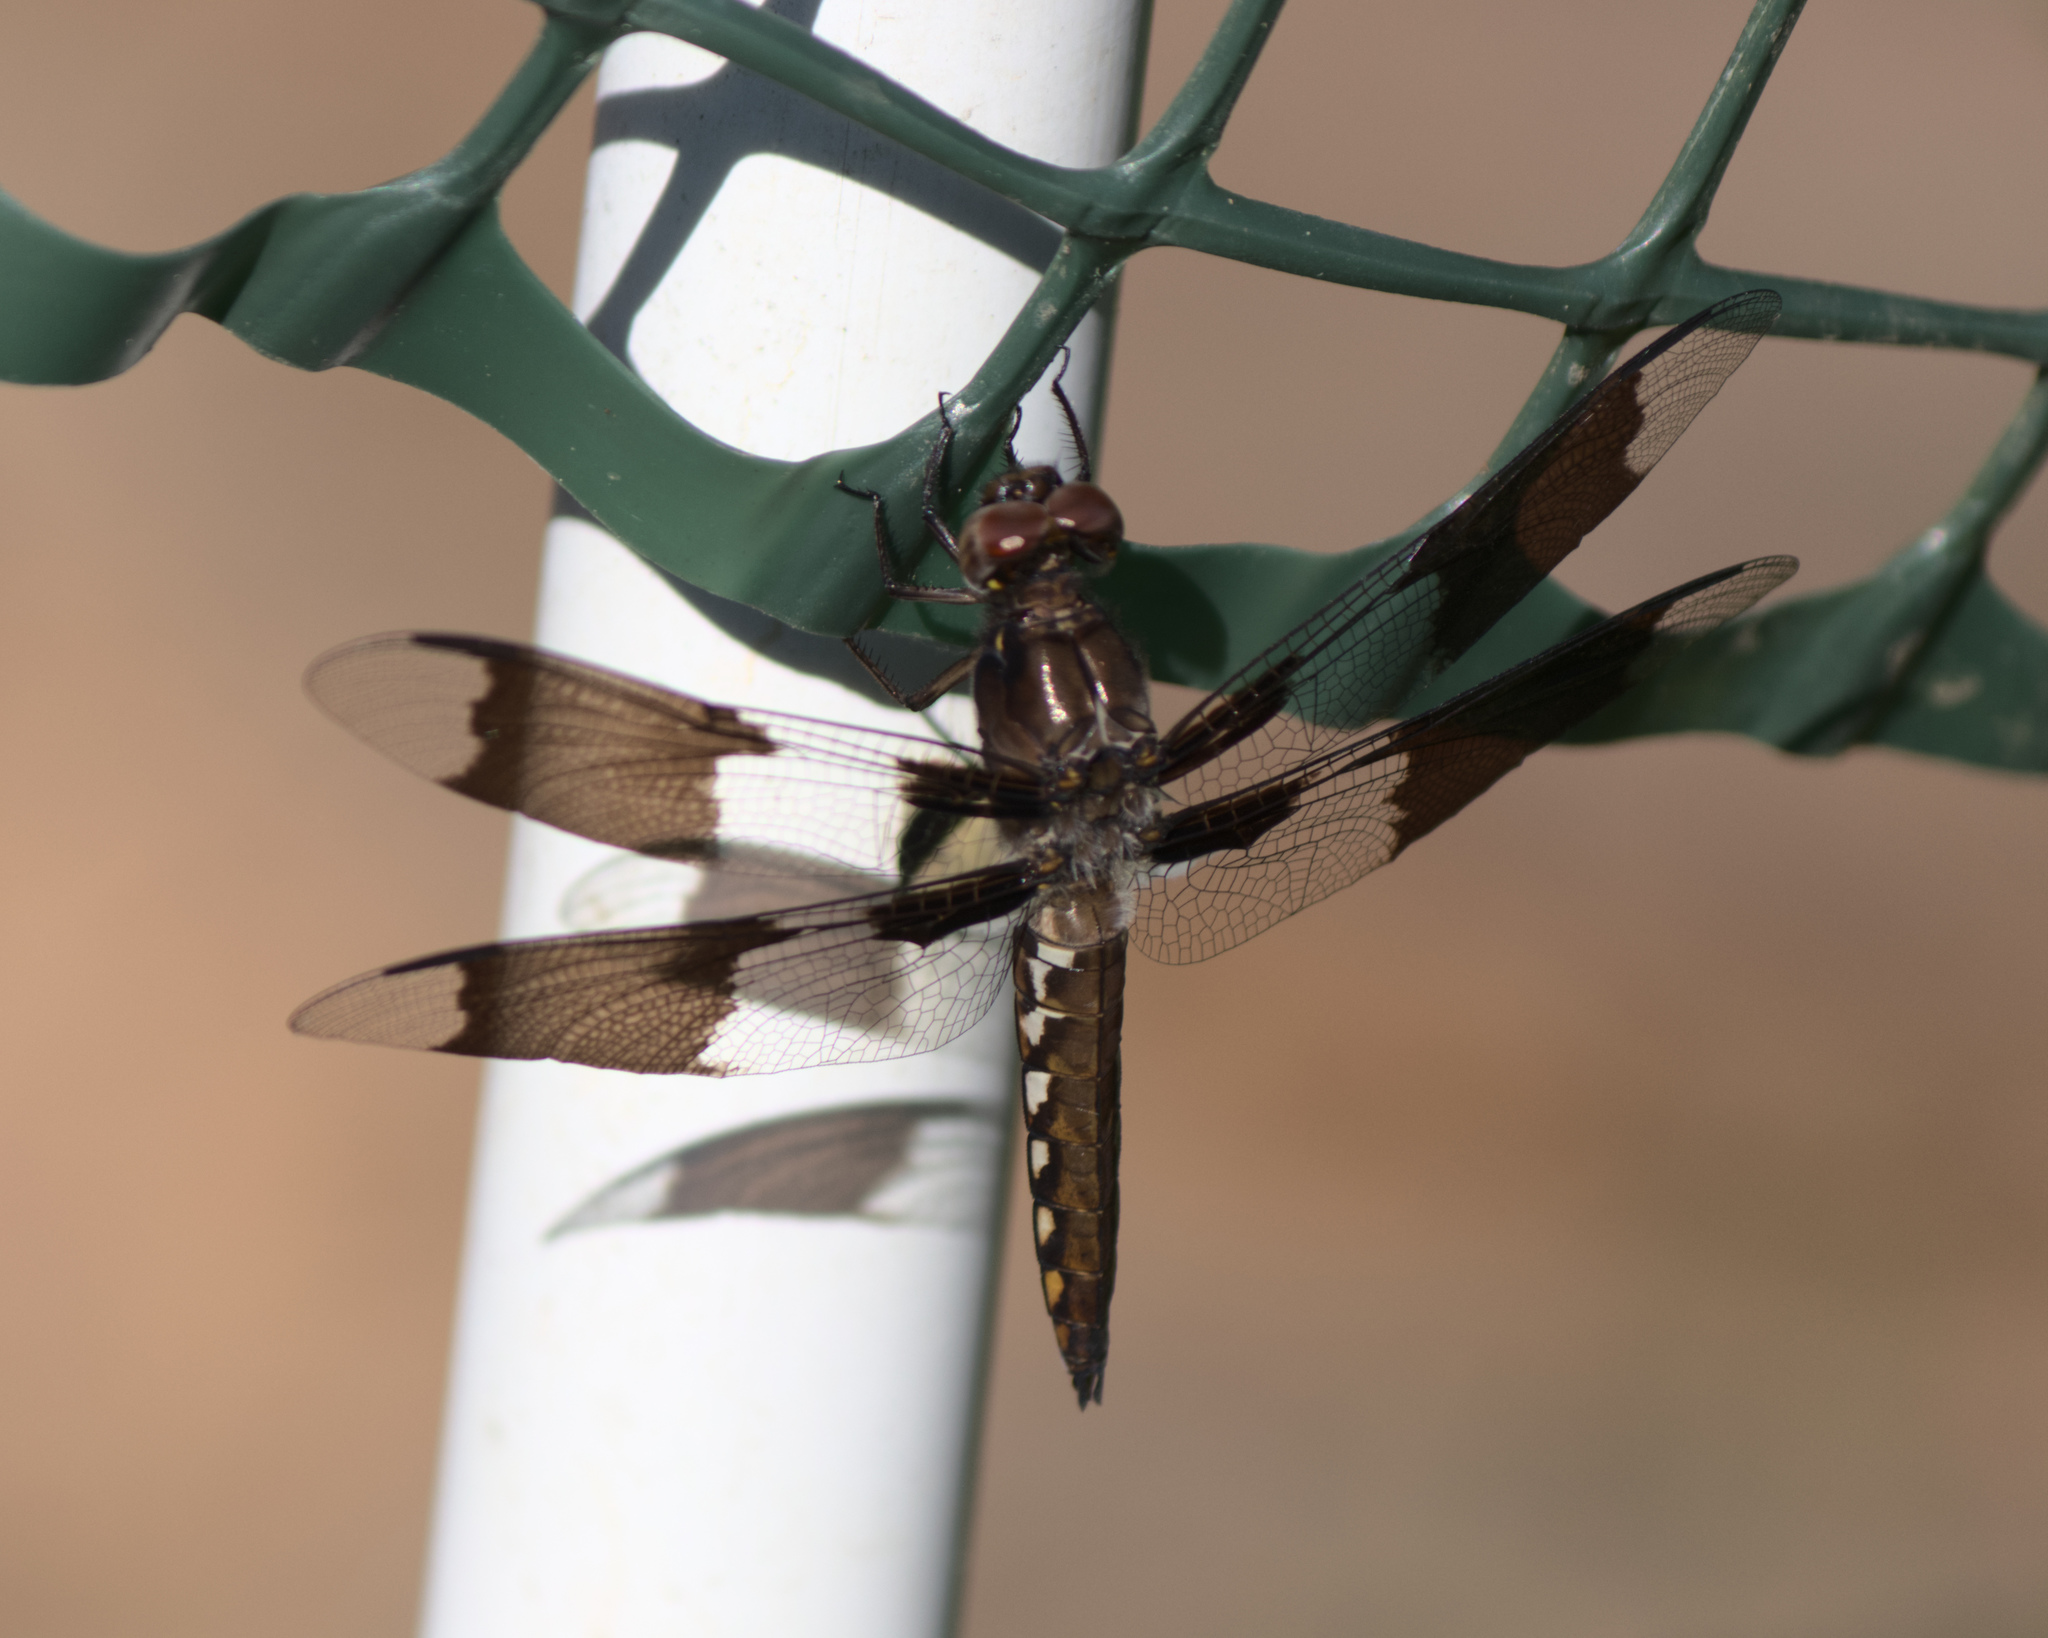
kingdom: Animalia
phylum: Arthropoda
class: Insecta
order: Odonata
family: Libellulidae
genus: Plathemis
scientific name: Plathemis lydia
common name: Common whitetail
